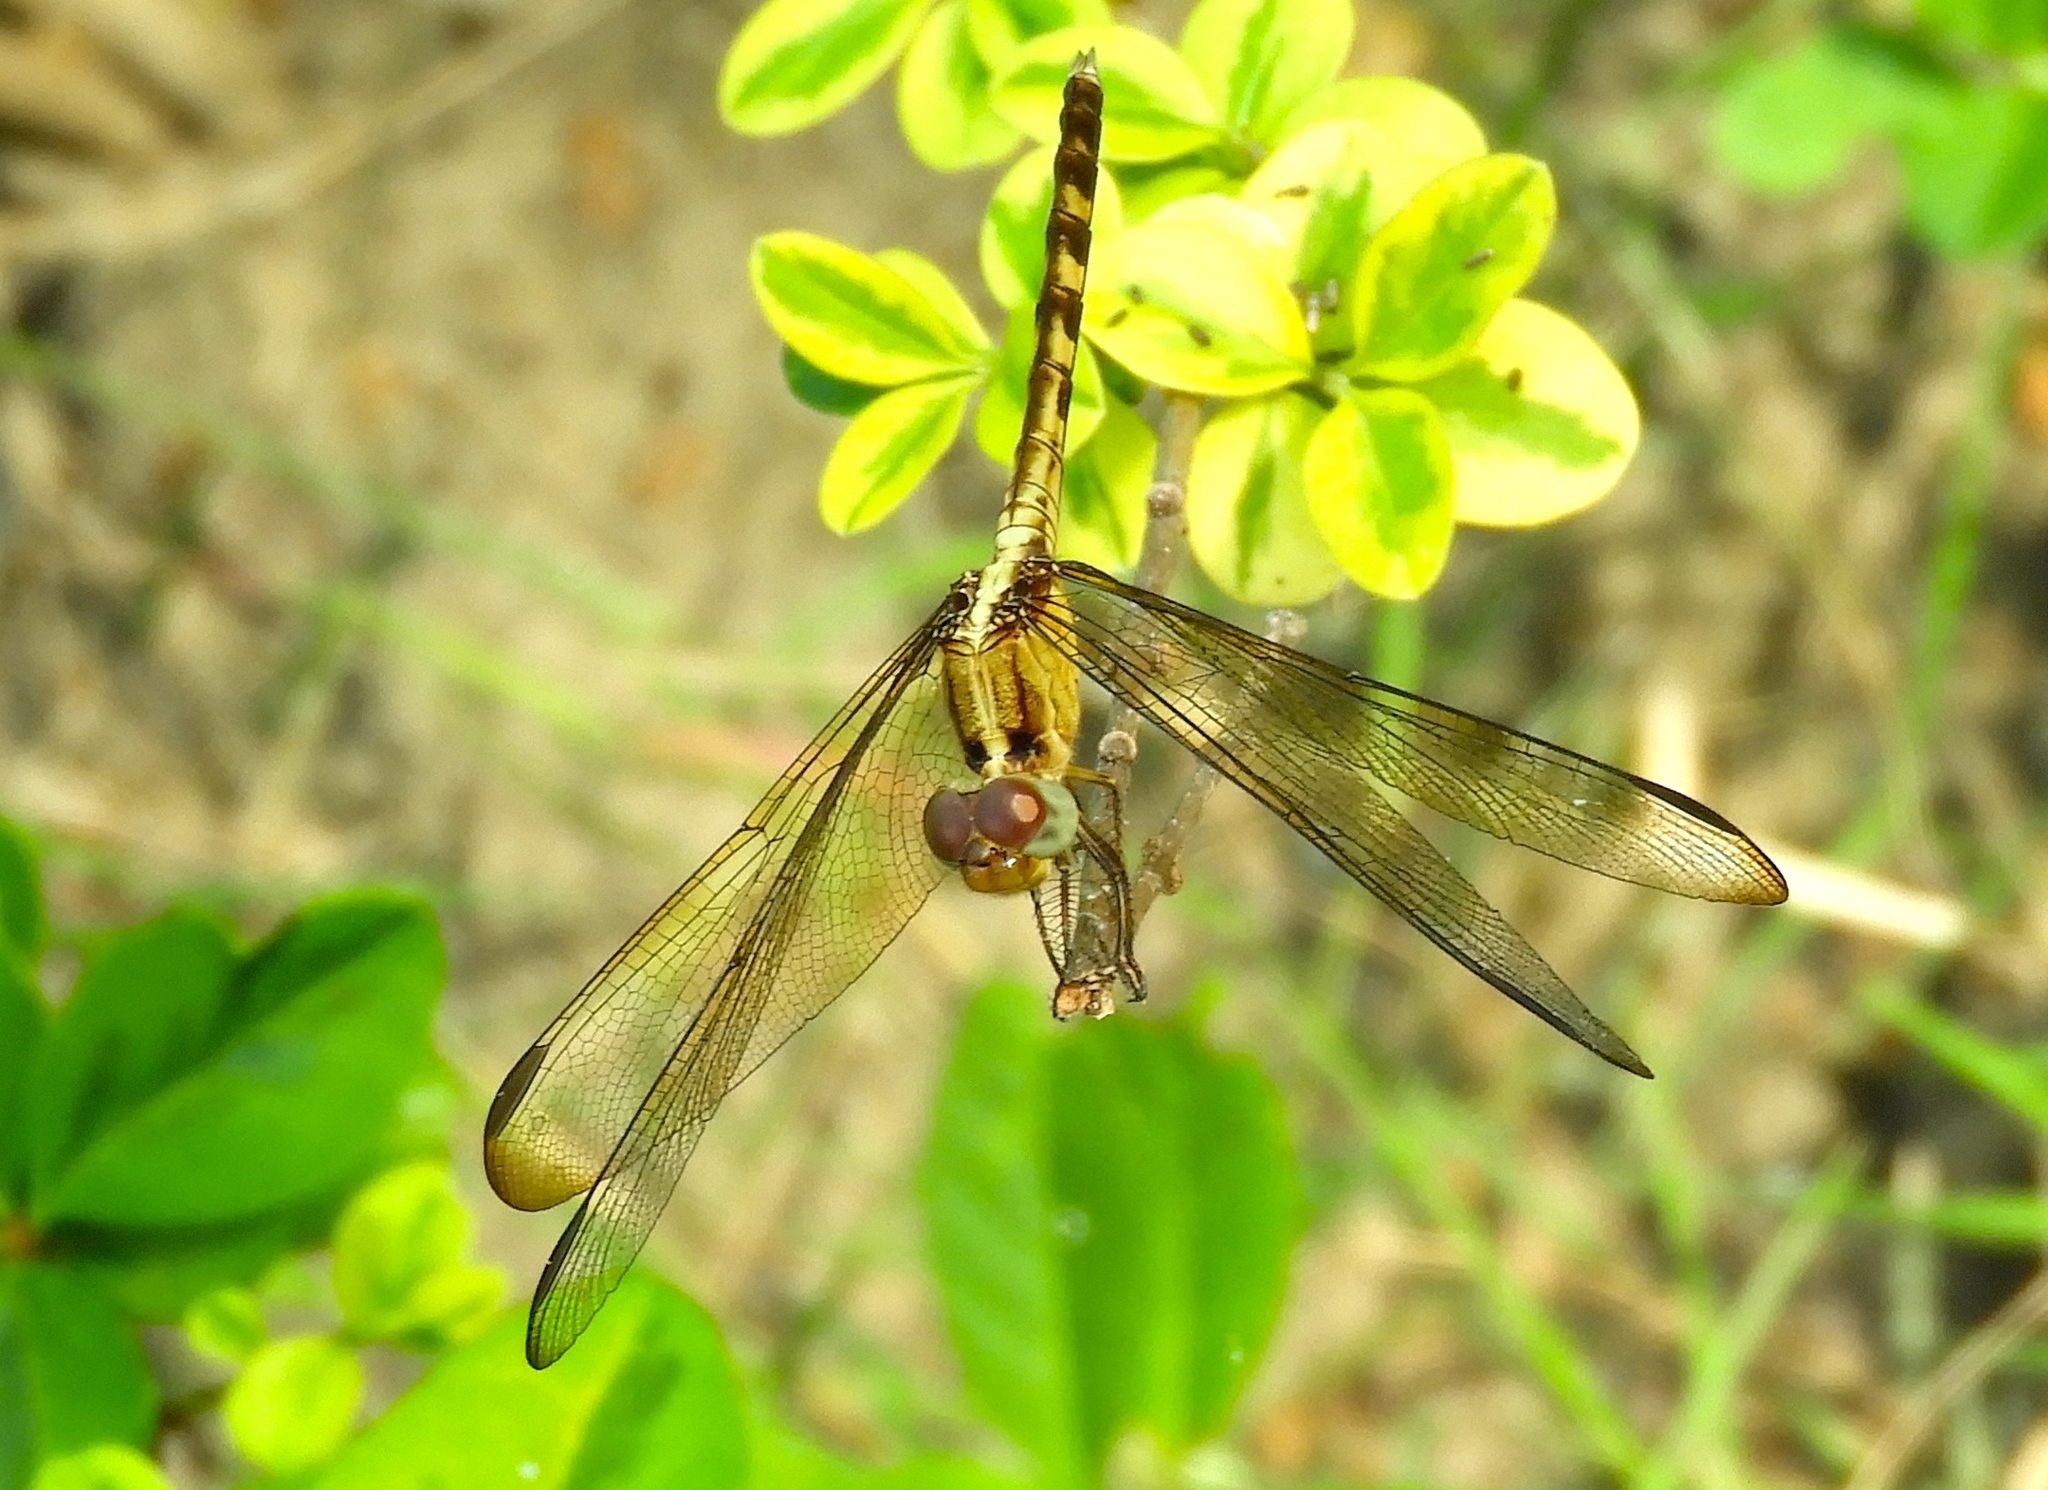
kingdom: Animalia
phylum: Arthropoda
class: Insecta
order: Odonata
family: Libellulidae
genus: Erythrodiplax
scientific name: Erythrodiplax funerea
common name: Black-winged dragonlet
